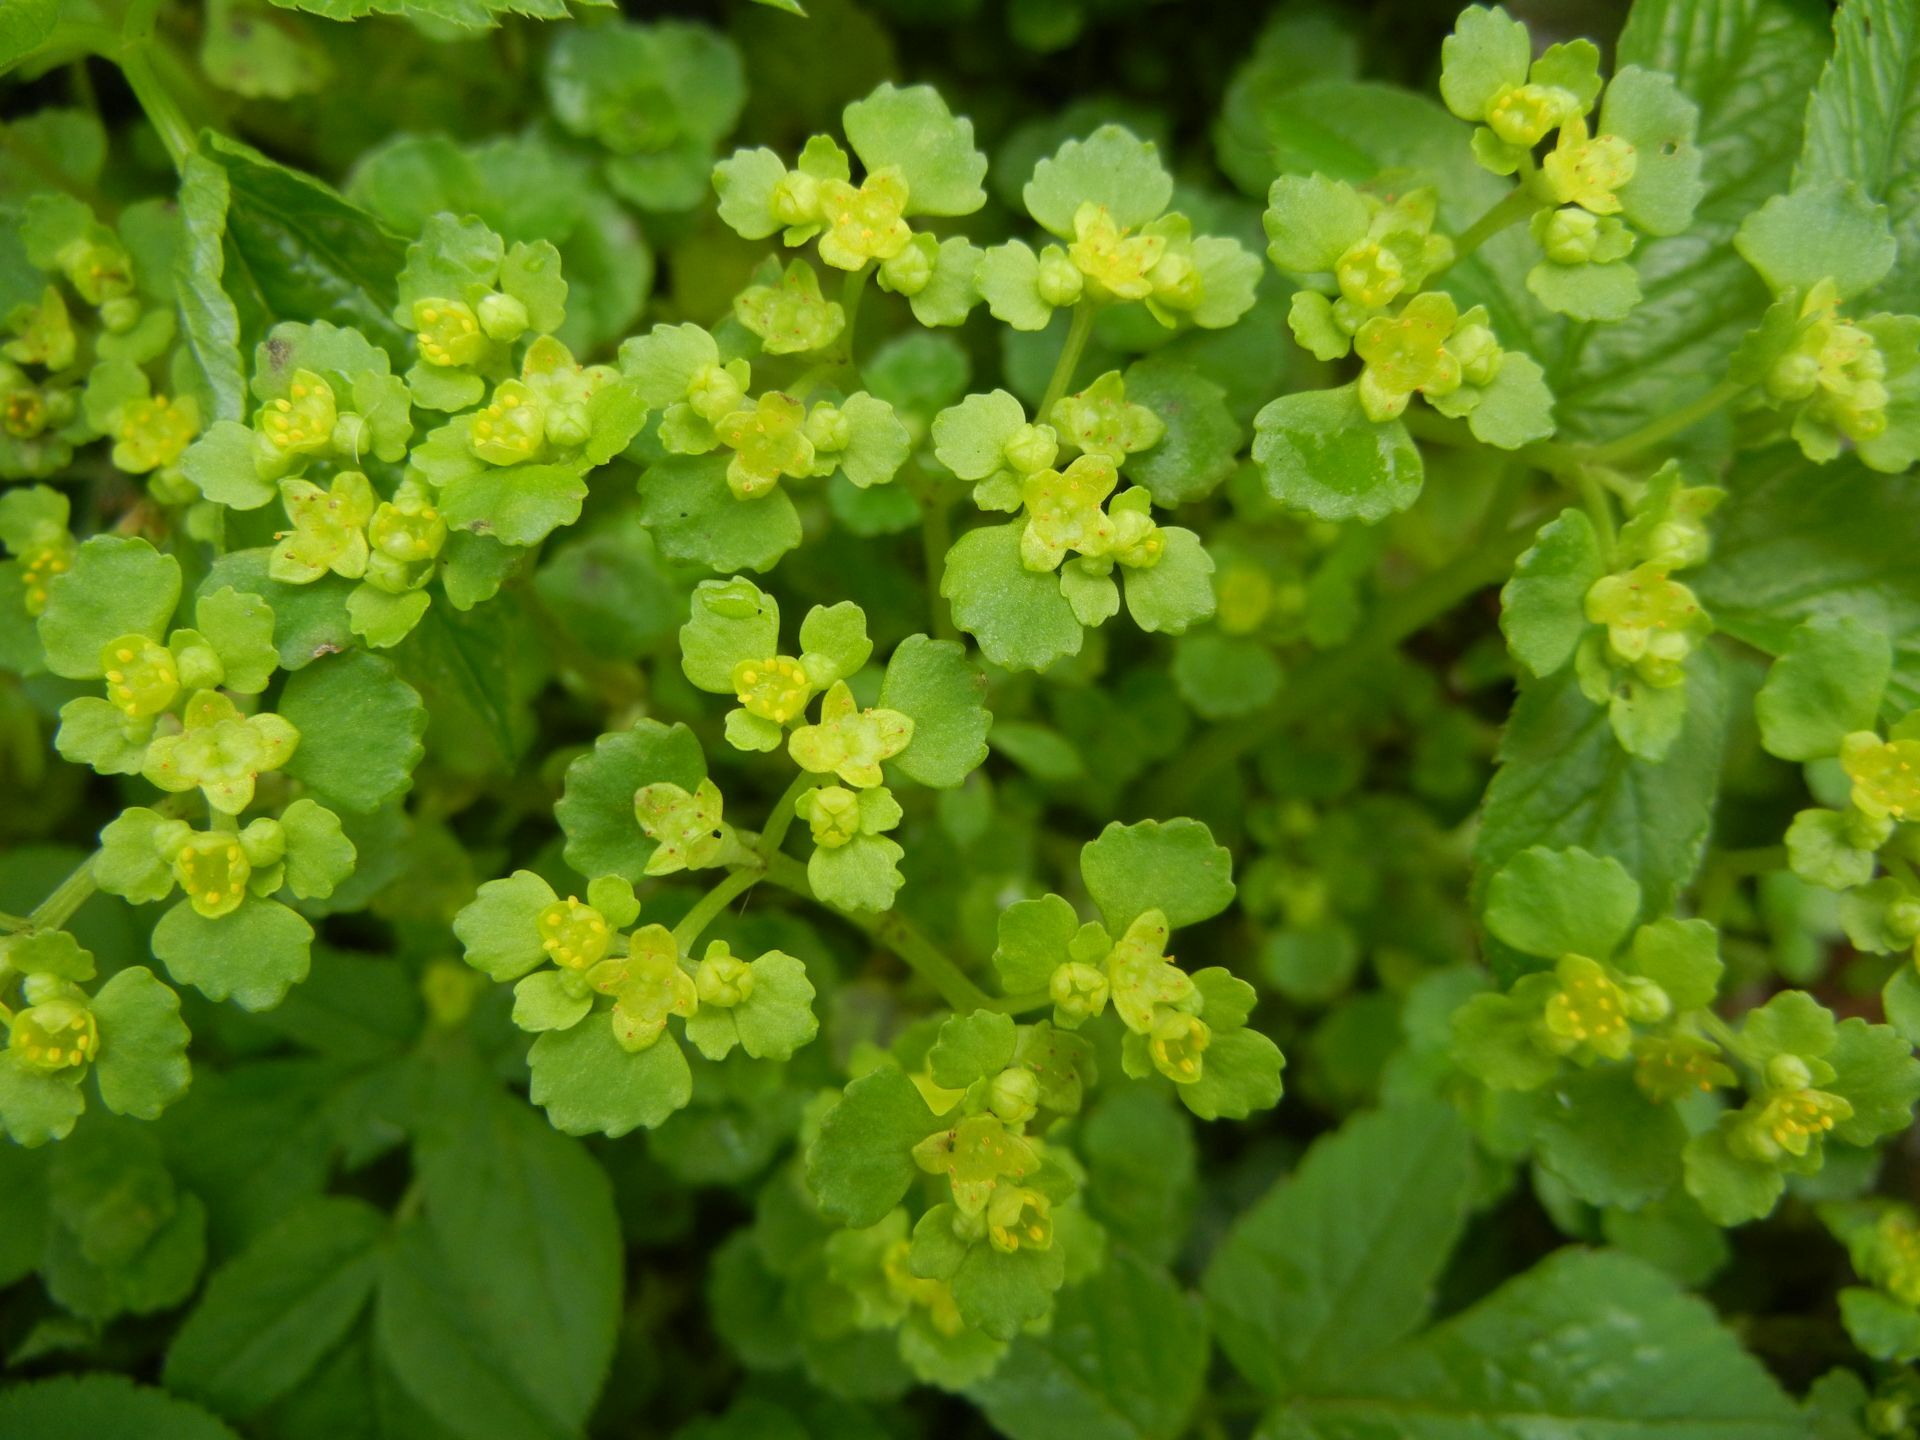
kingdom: Plantae
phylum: Tracheophyta
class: Magnoliopsida
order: Saxifragales
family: Saxifragaceae
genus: Chrysosplenium
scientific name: Chrysosplenium oppositifolium
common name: Opposite-leaved golden-saxifrage
